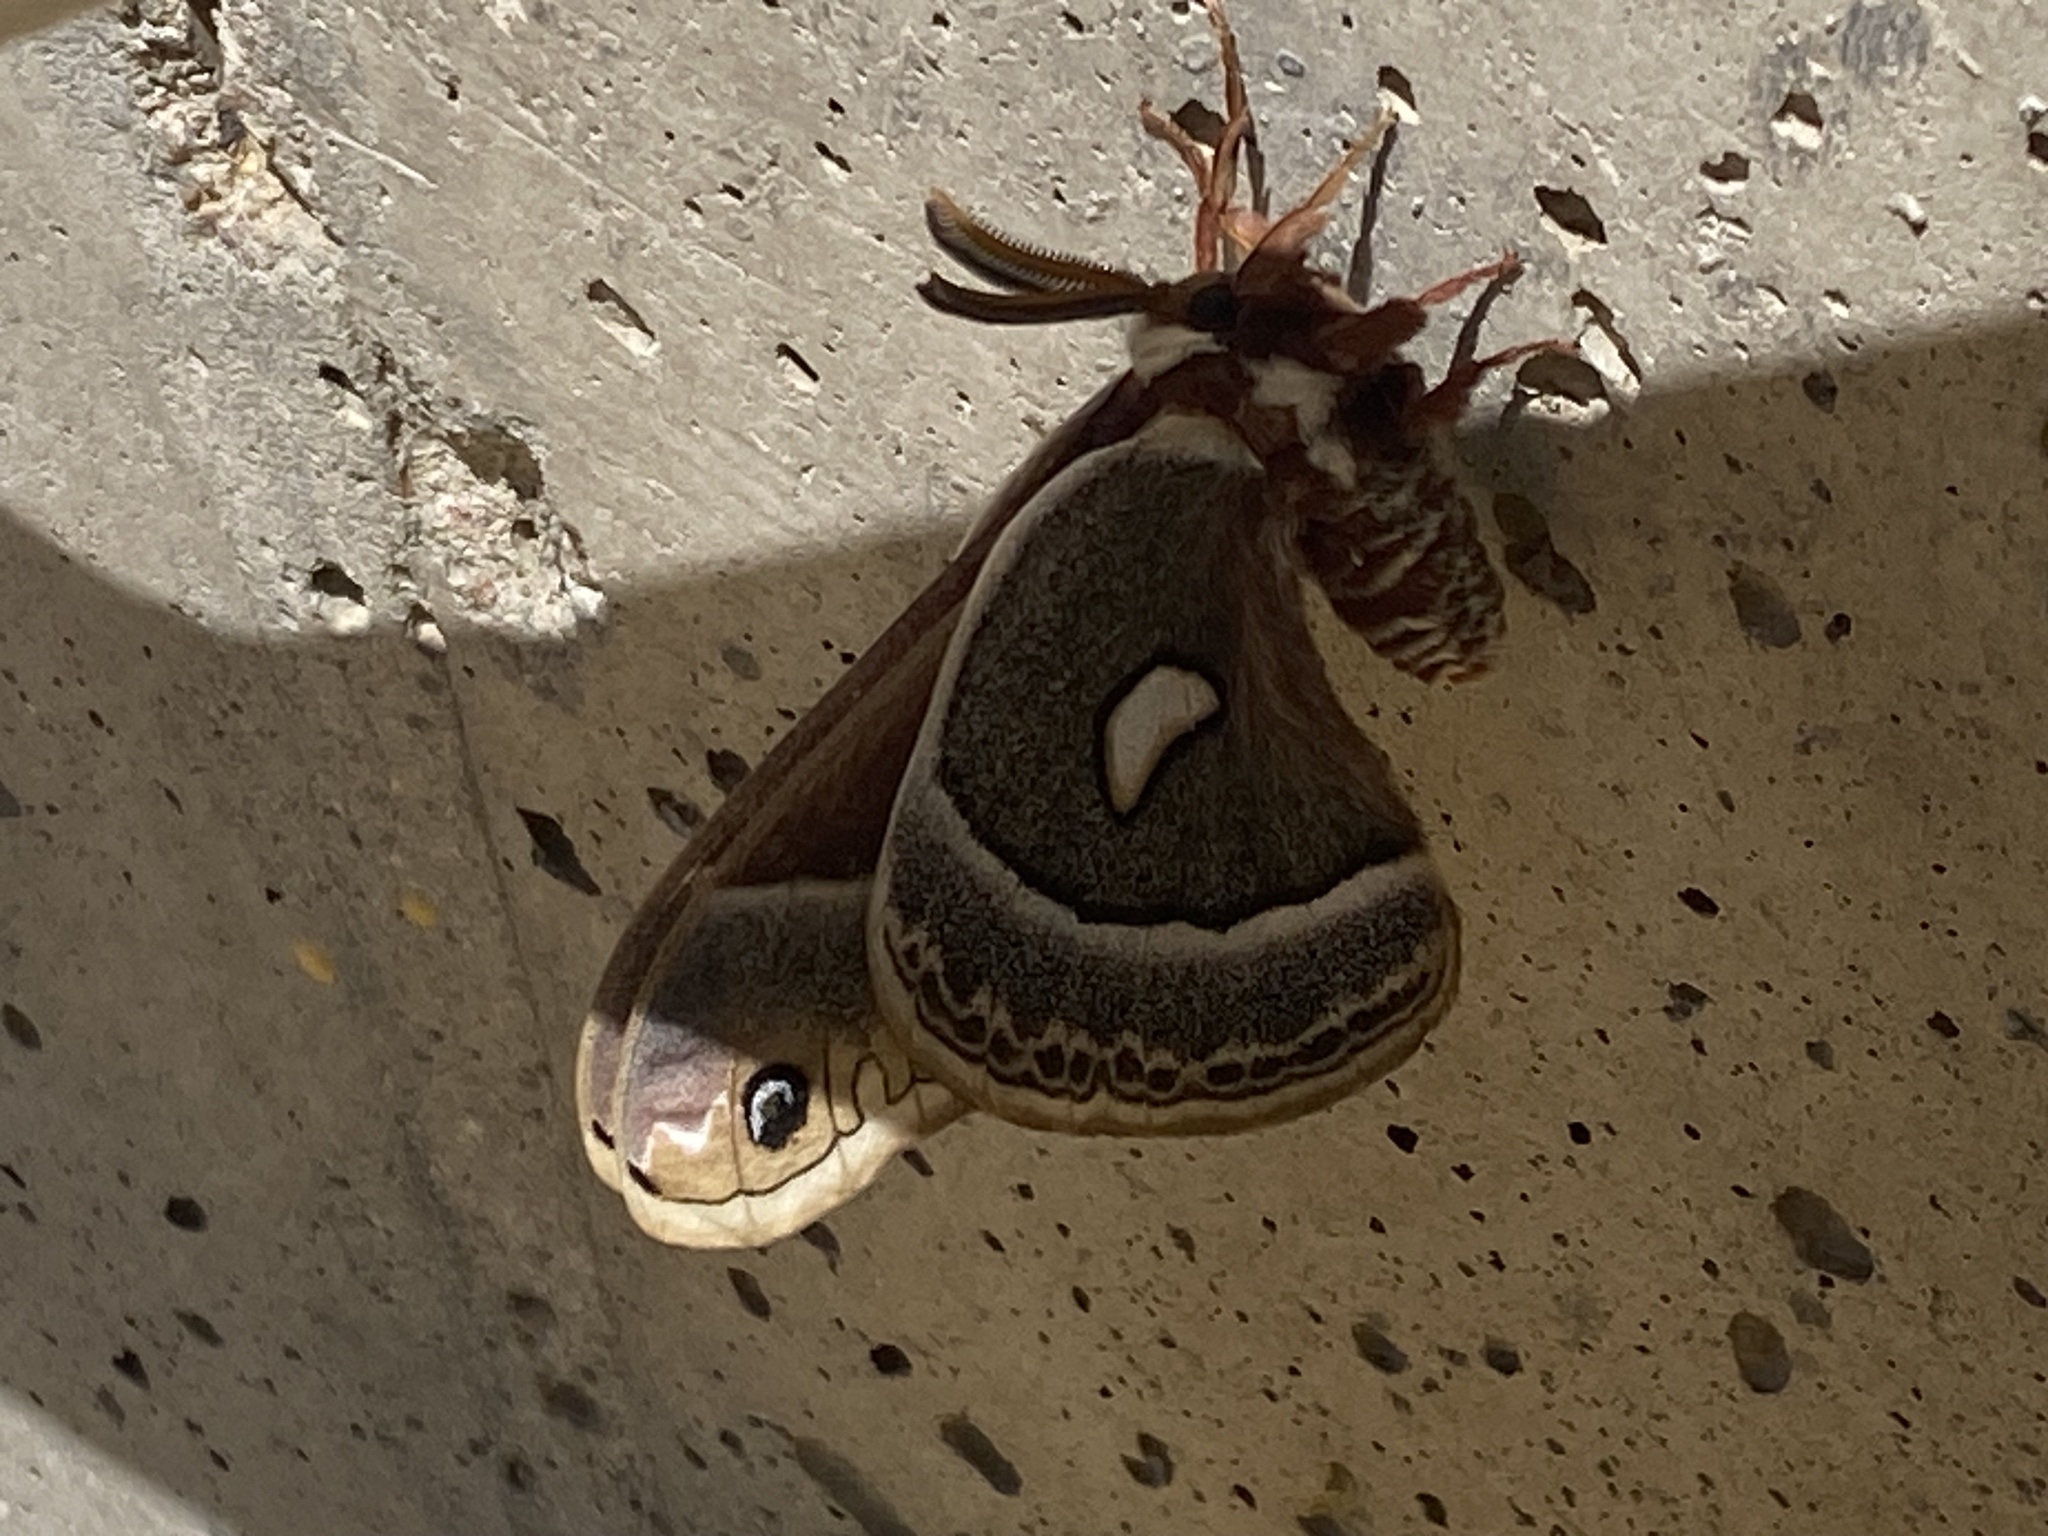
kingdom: Animalia
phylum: Arthropoda
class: Insecta
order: Lepidoptera
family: Saturniidae
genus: Hyalophora
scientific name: Hyalophora gloveri
